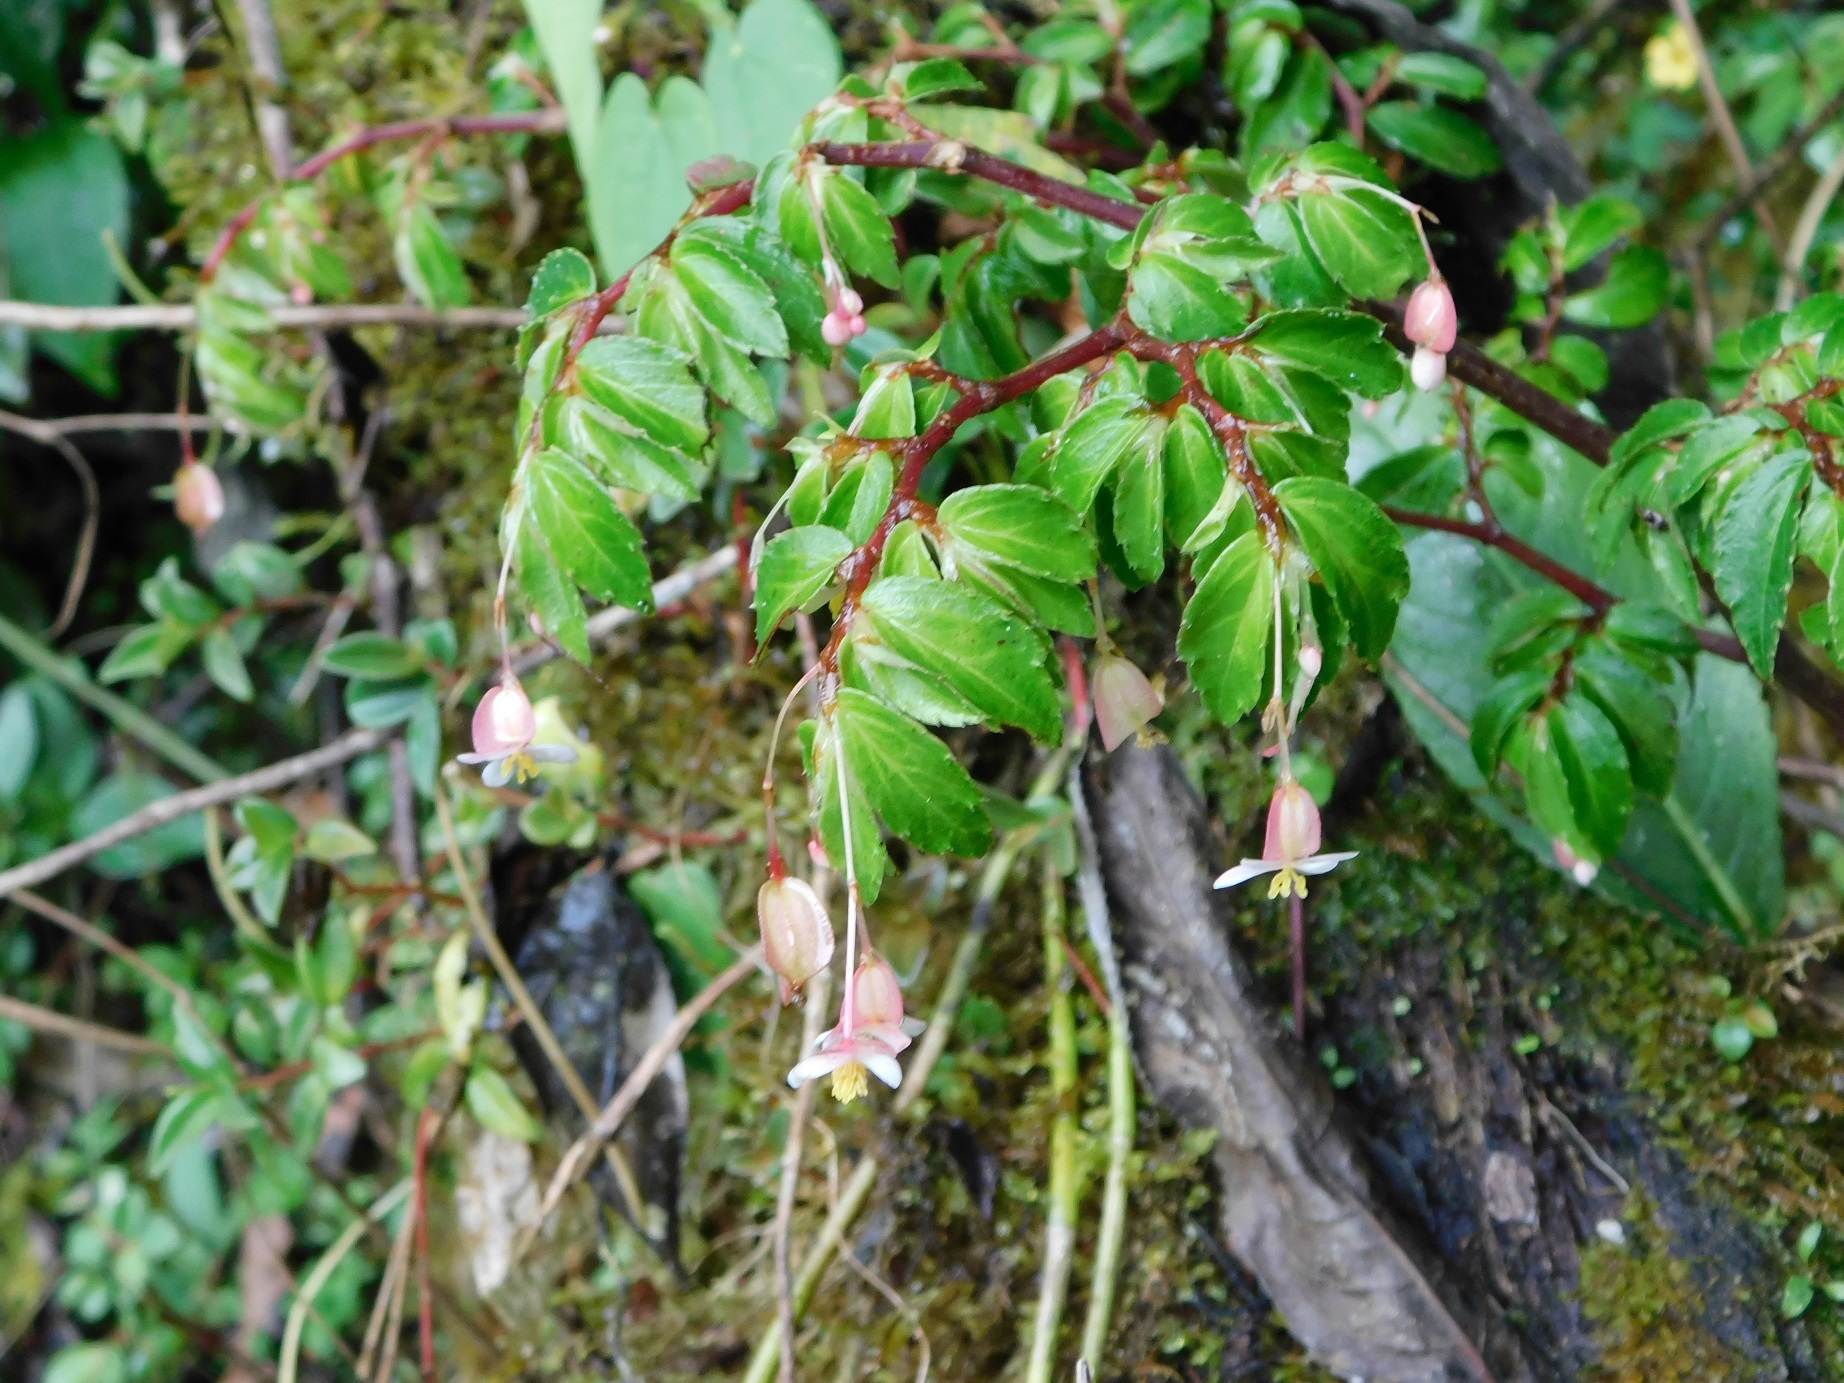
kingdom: Plantae
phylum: Tracheophyta
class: Magnoliopsida
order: Cucurbitales
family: Begoniaceae
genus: Begonia
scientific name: Begonia foliosa
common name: Fern begonia
